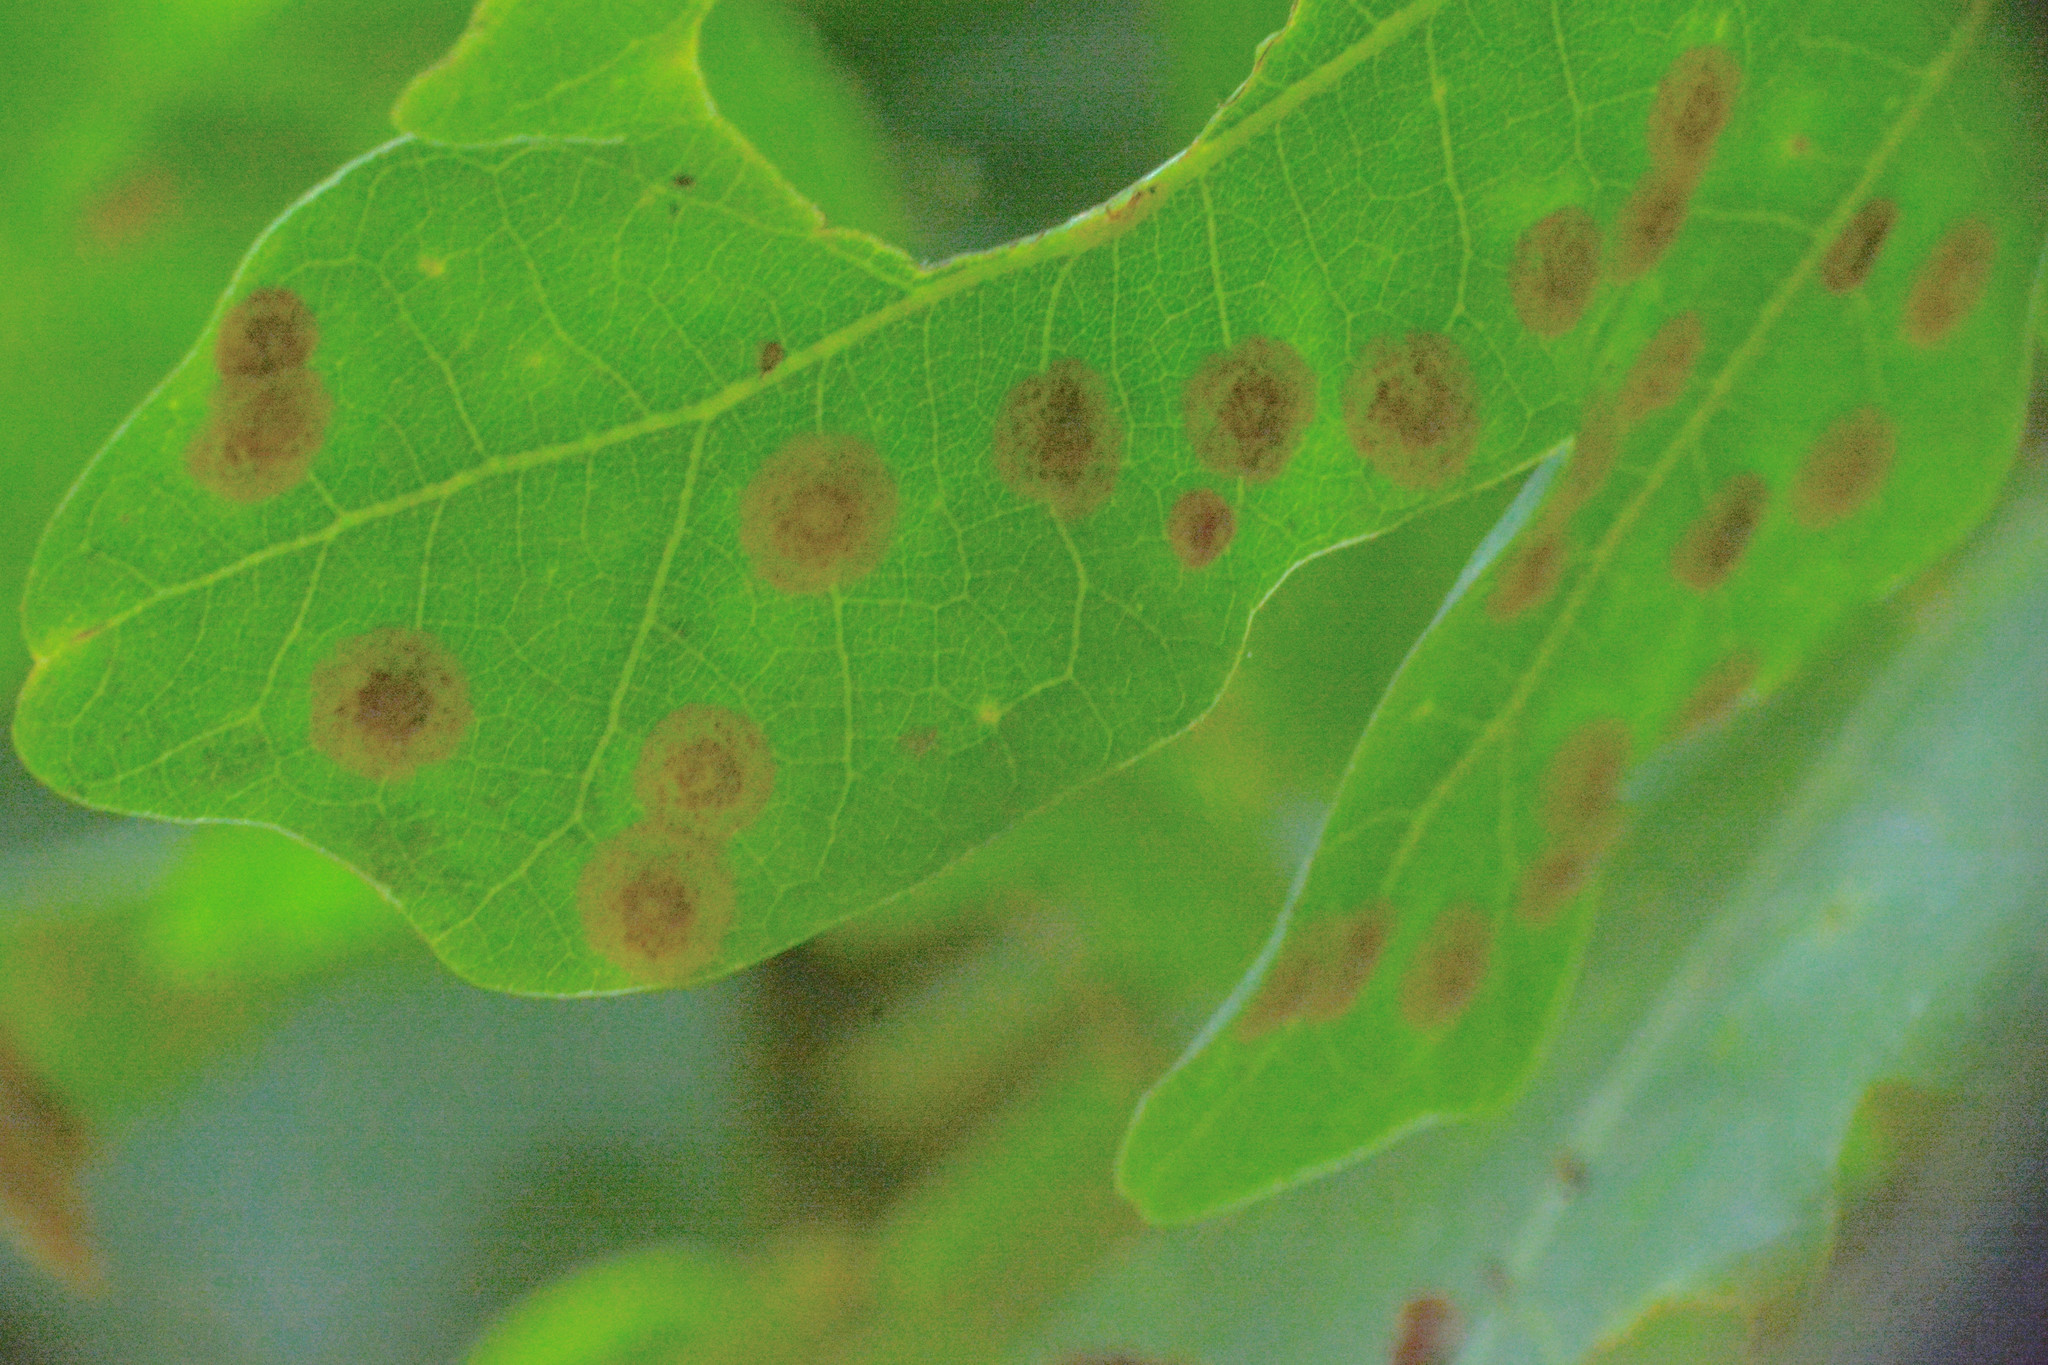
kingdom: Animalia
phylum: Arthropoda
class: Insecta
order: Hymenoptera
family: Cynipidae
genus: Neuroterus
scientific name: Neuroterus quercusbaccarum
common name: Common spangle gall
